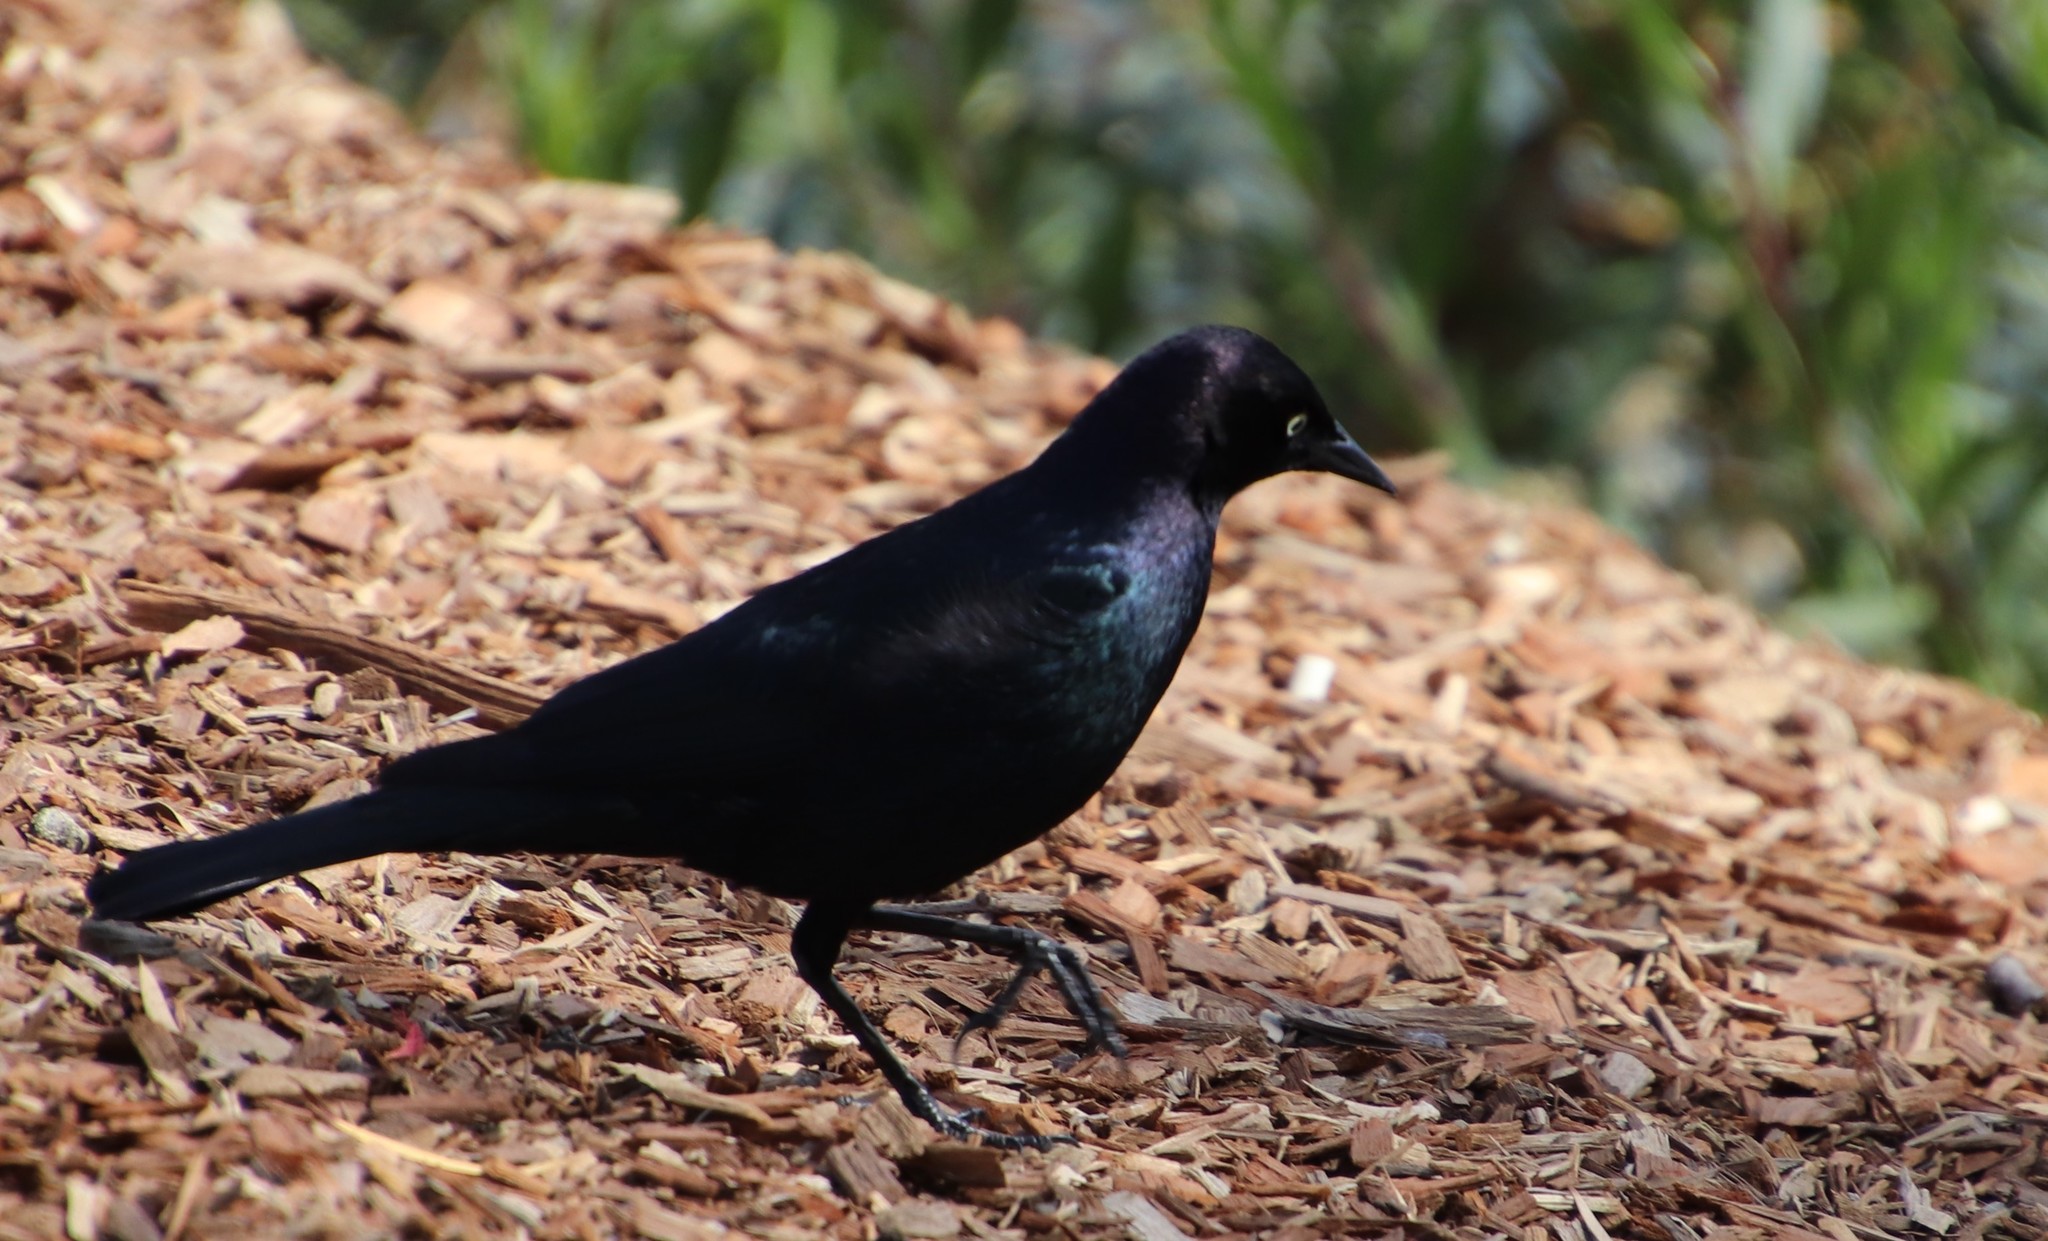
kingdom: Animalia
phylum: Chordata
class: Aves
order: Passeriformes
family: Icteridae
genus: Euphagus
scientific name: Euphagus cyanocephalus
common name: Brewer's blackbird
